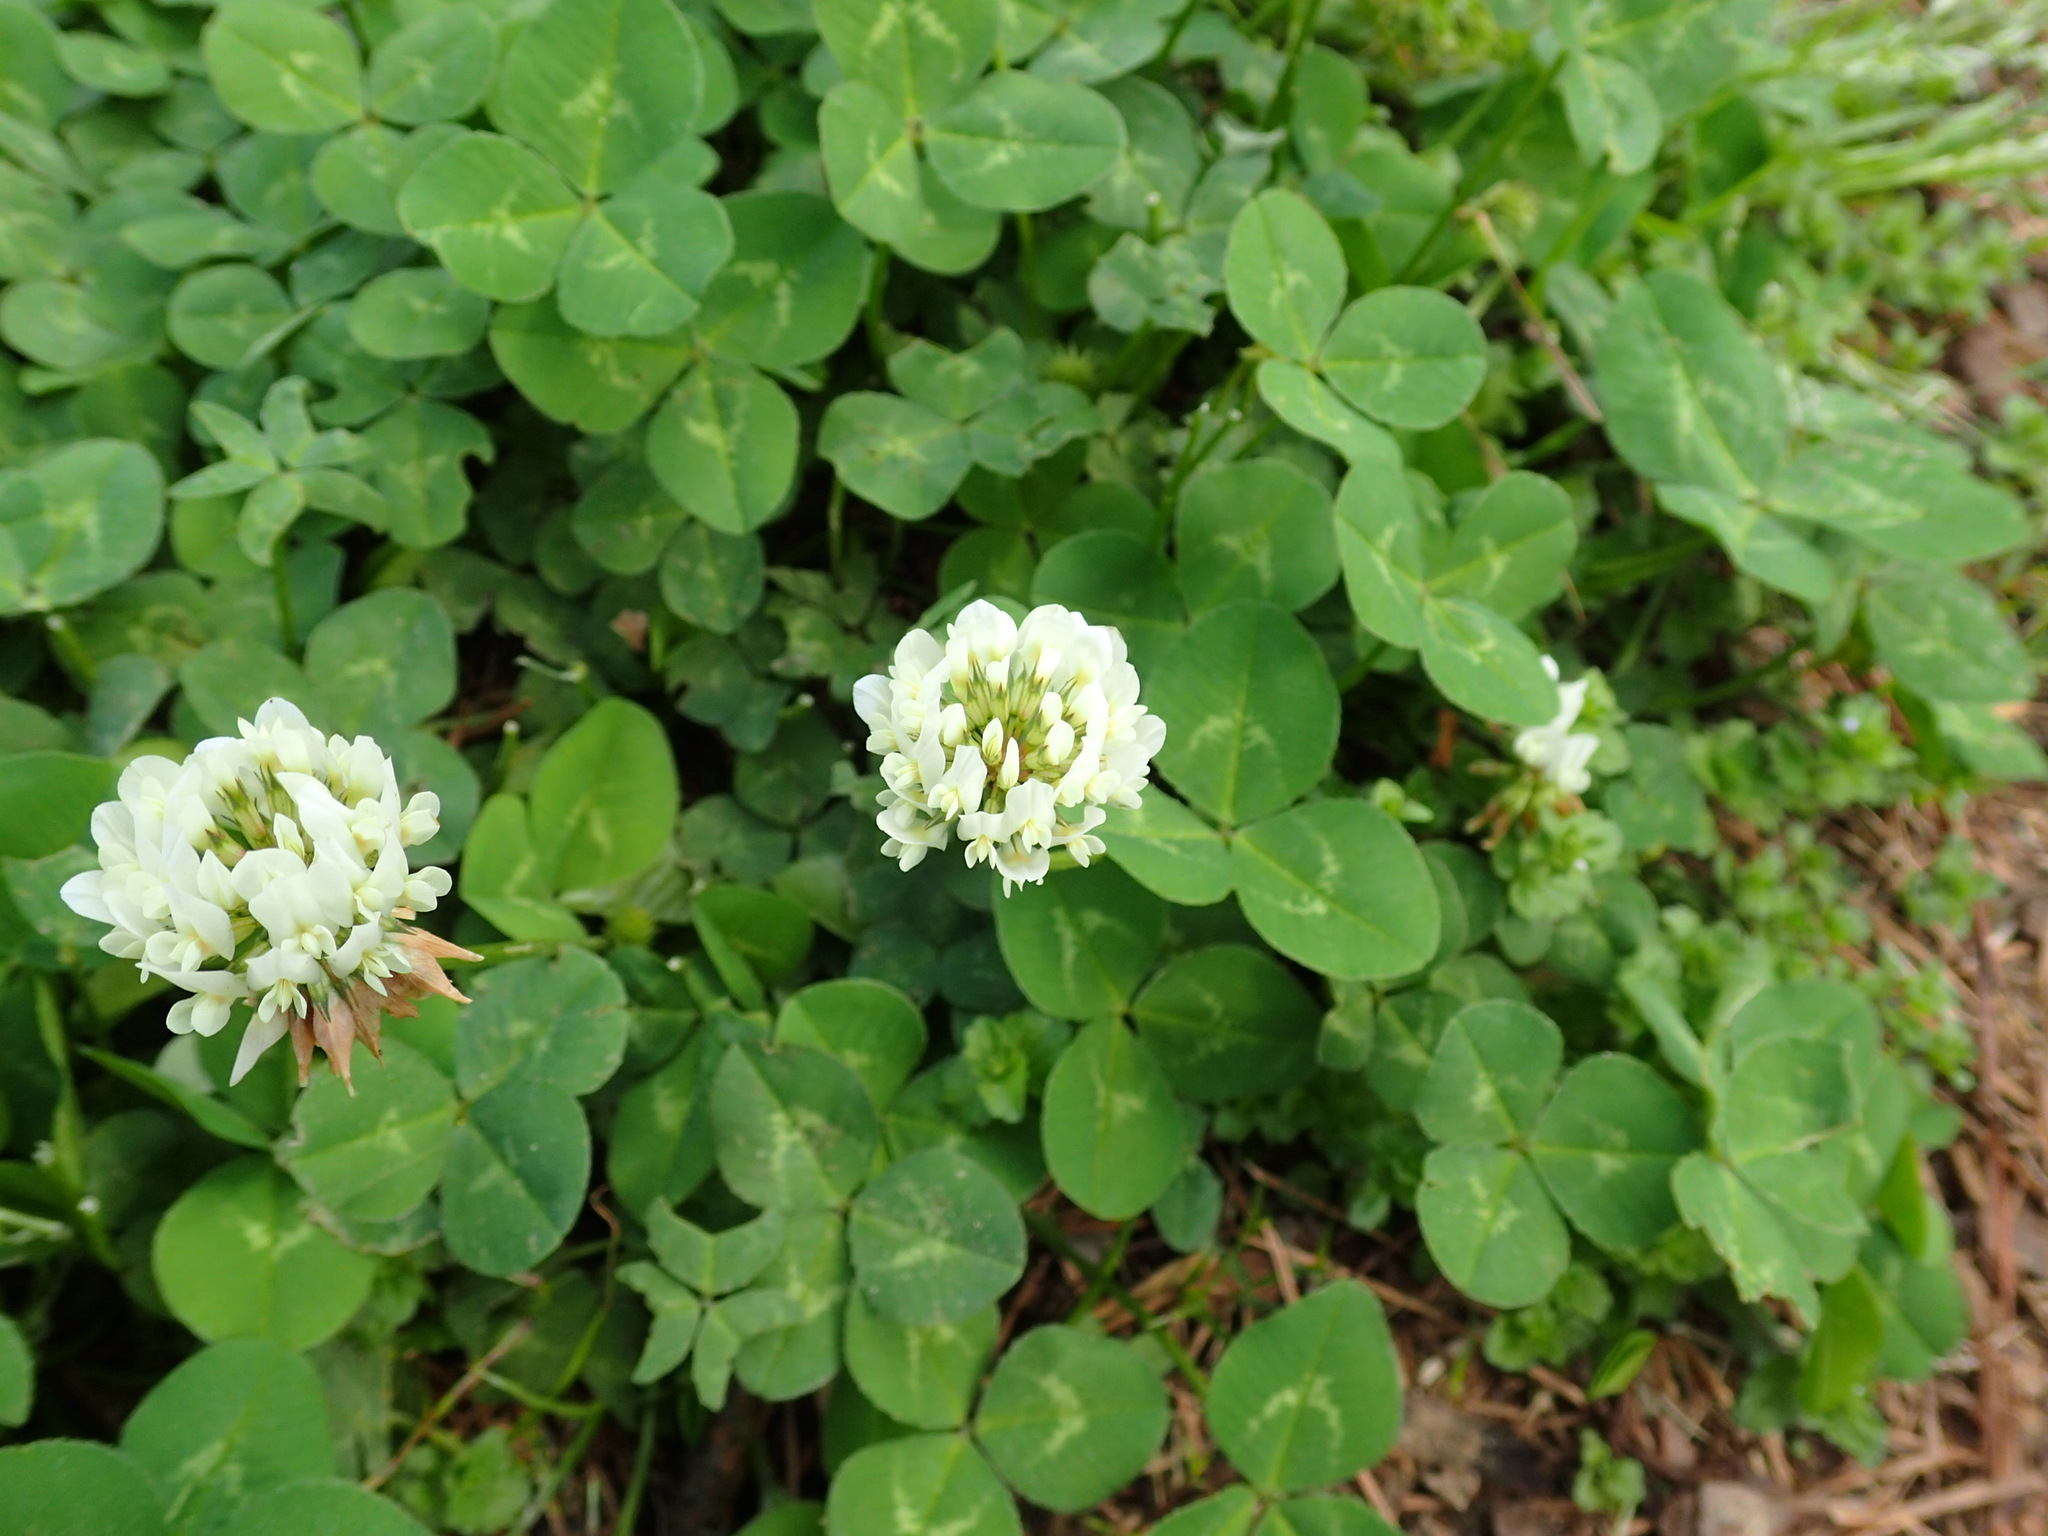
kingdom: Plantae
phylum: Tracheophyta
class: Magnoliopsida
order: Fabales
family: Fabaceae
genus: Trifolium
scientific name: Trifolium repens
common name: White clover
